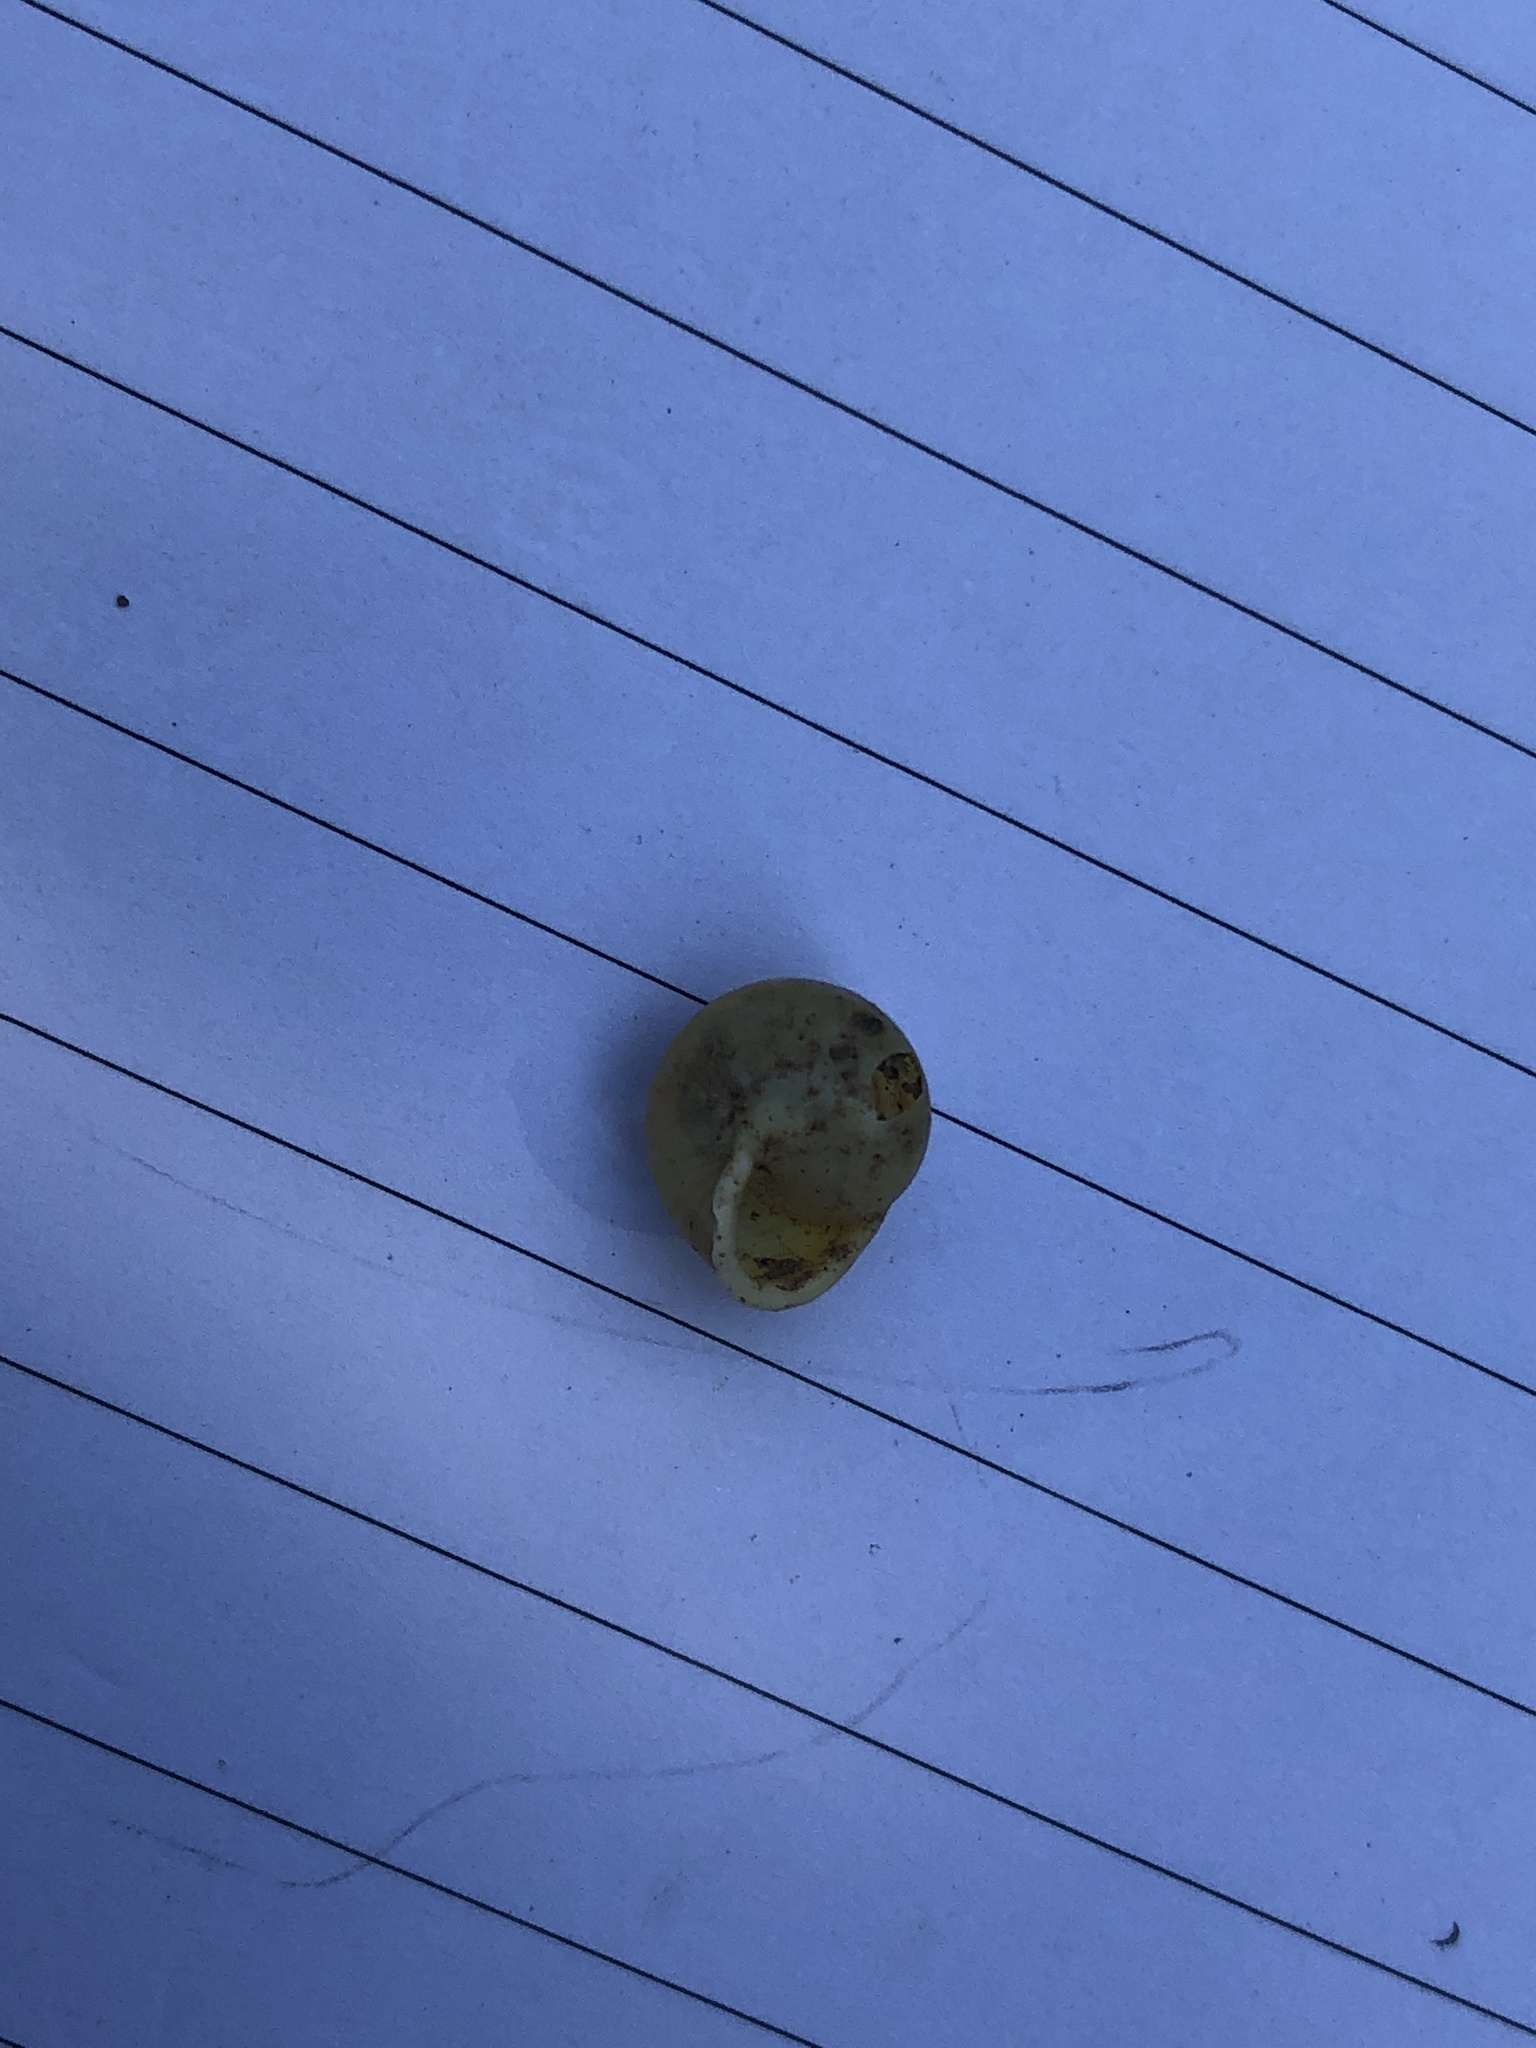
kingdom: Animalia
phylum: Mollusca
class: Gastropoda
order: Cycloneritida
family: Helicinidae
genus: Helicina
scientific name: Helicina orbiculata
